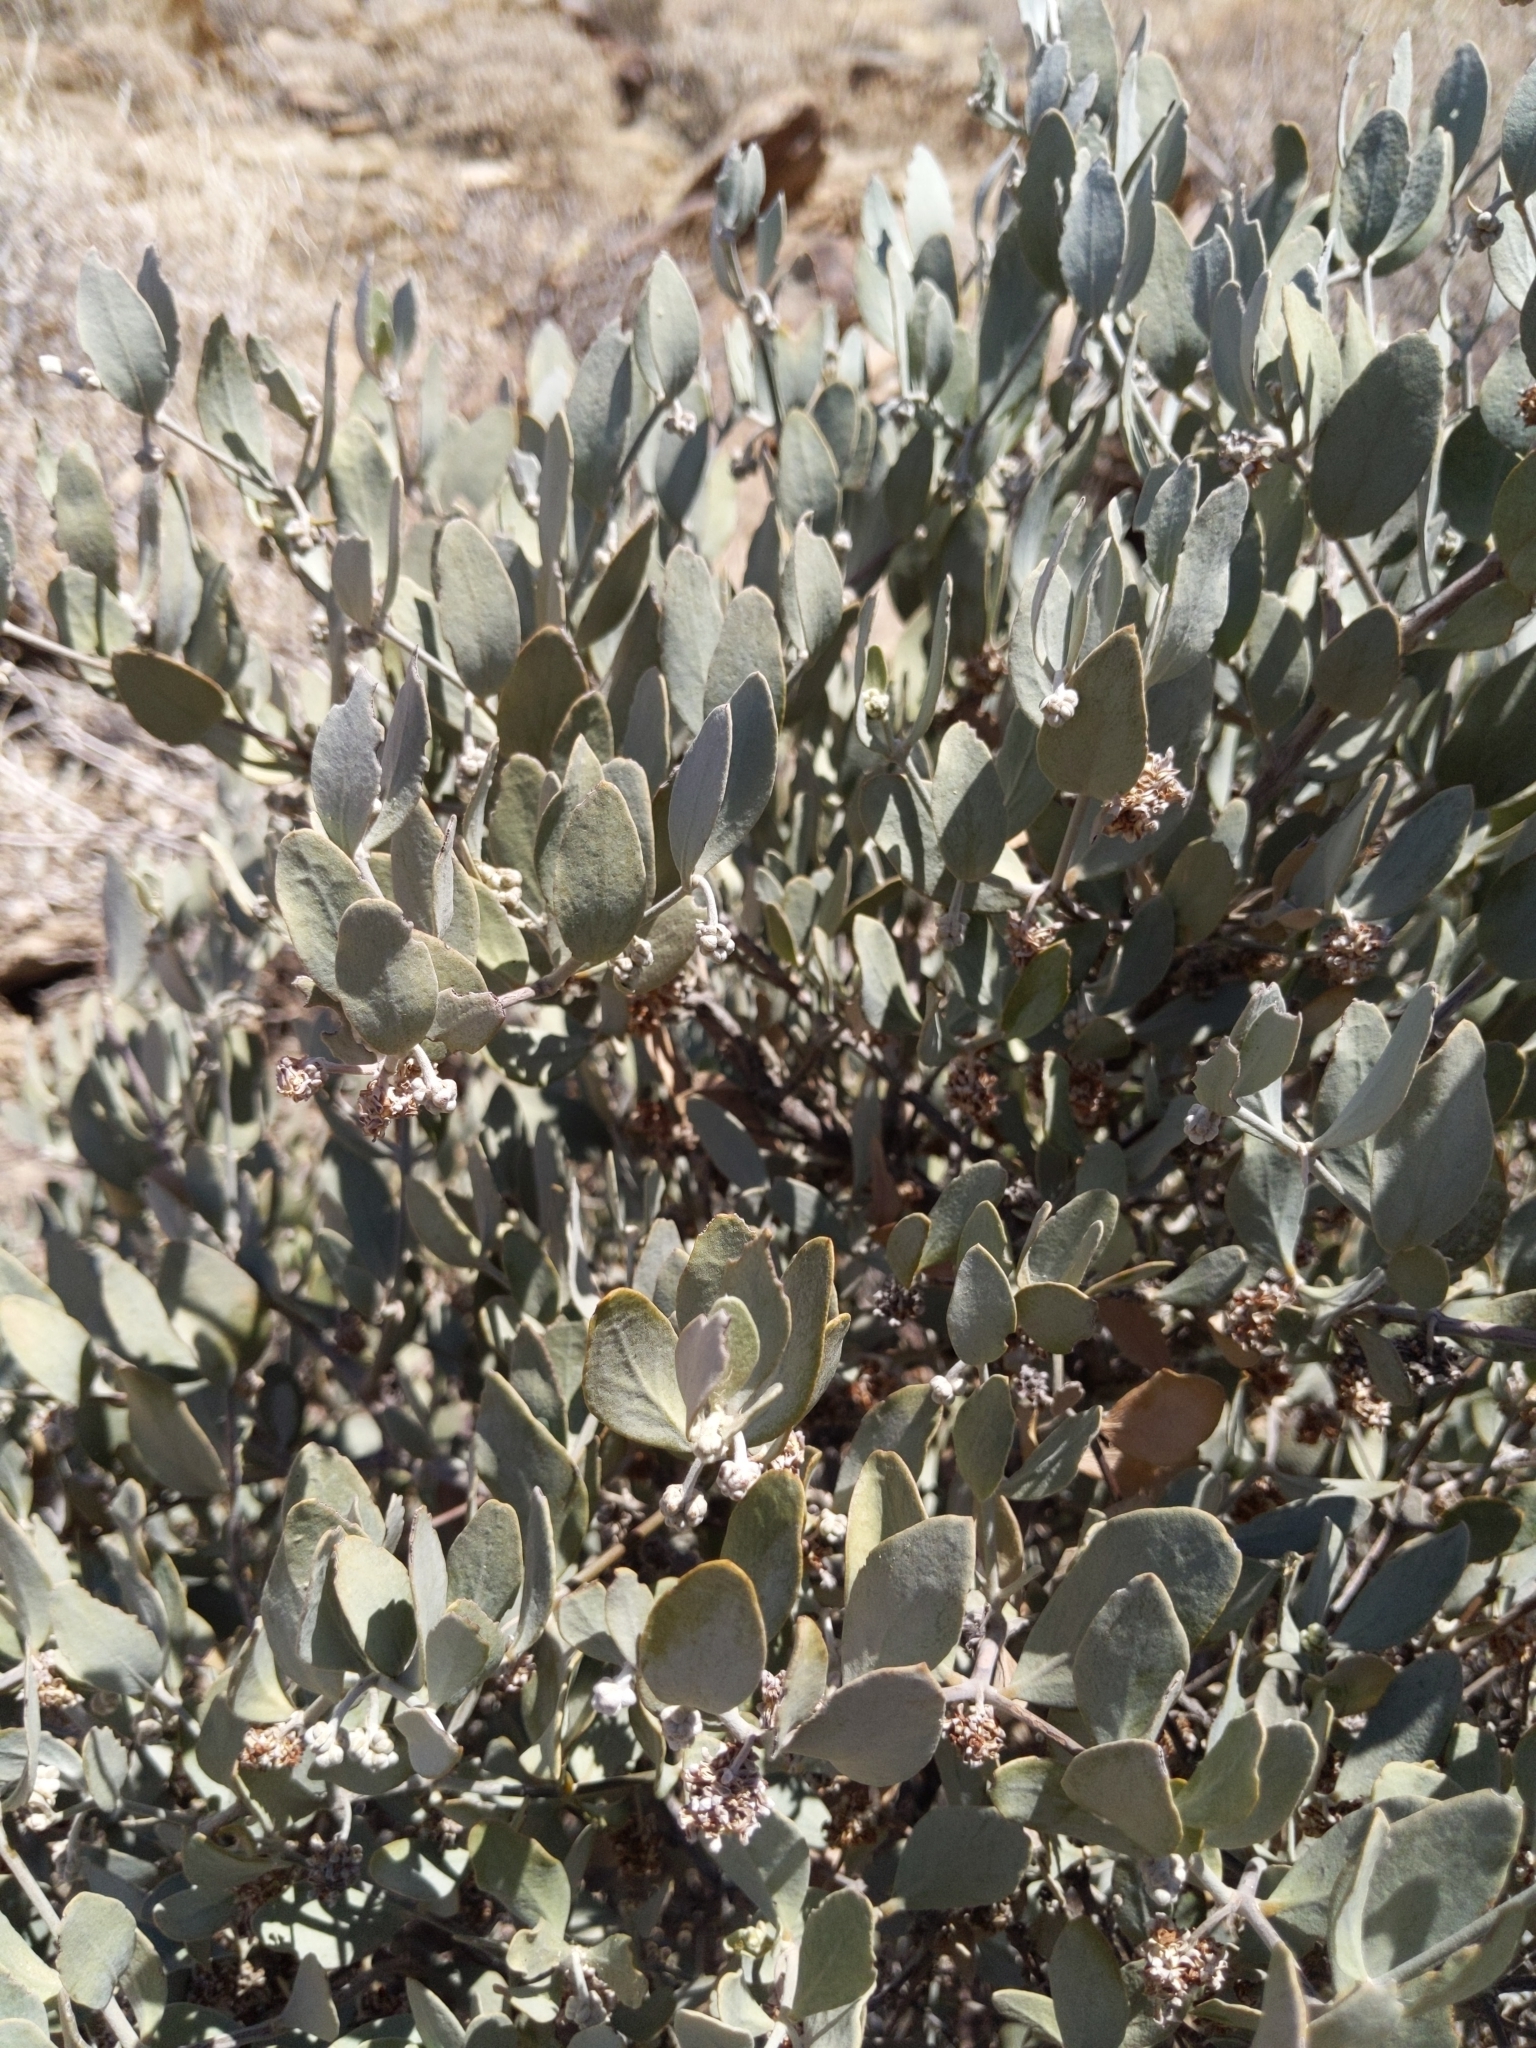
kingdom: Plantae
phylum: Tracheophyta
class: Magnoliopsida
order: Caryophyllales
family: Simmondsiaceae
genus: Simmondsia
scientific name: Simmondsia chinensis
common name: Jojoba
